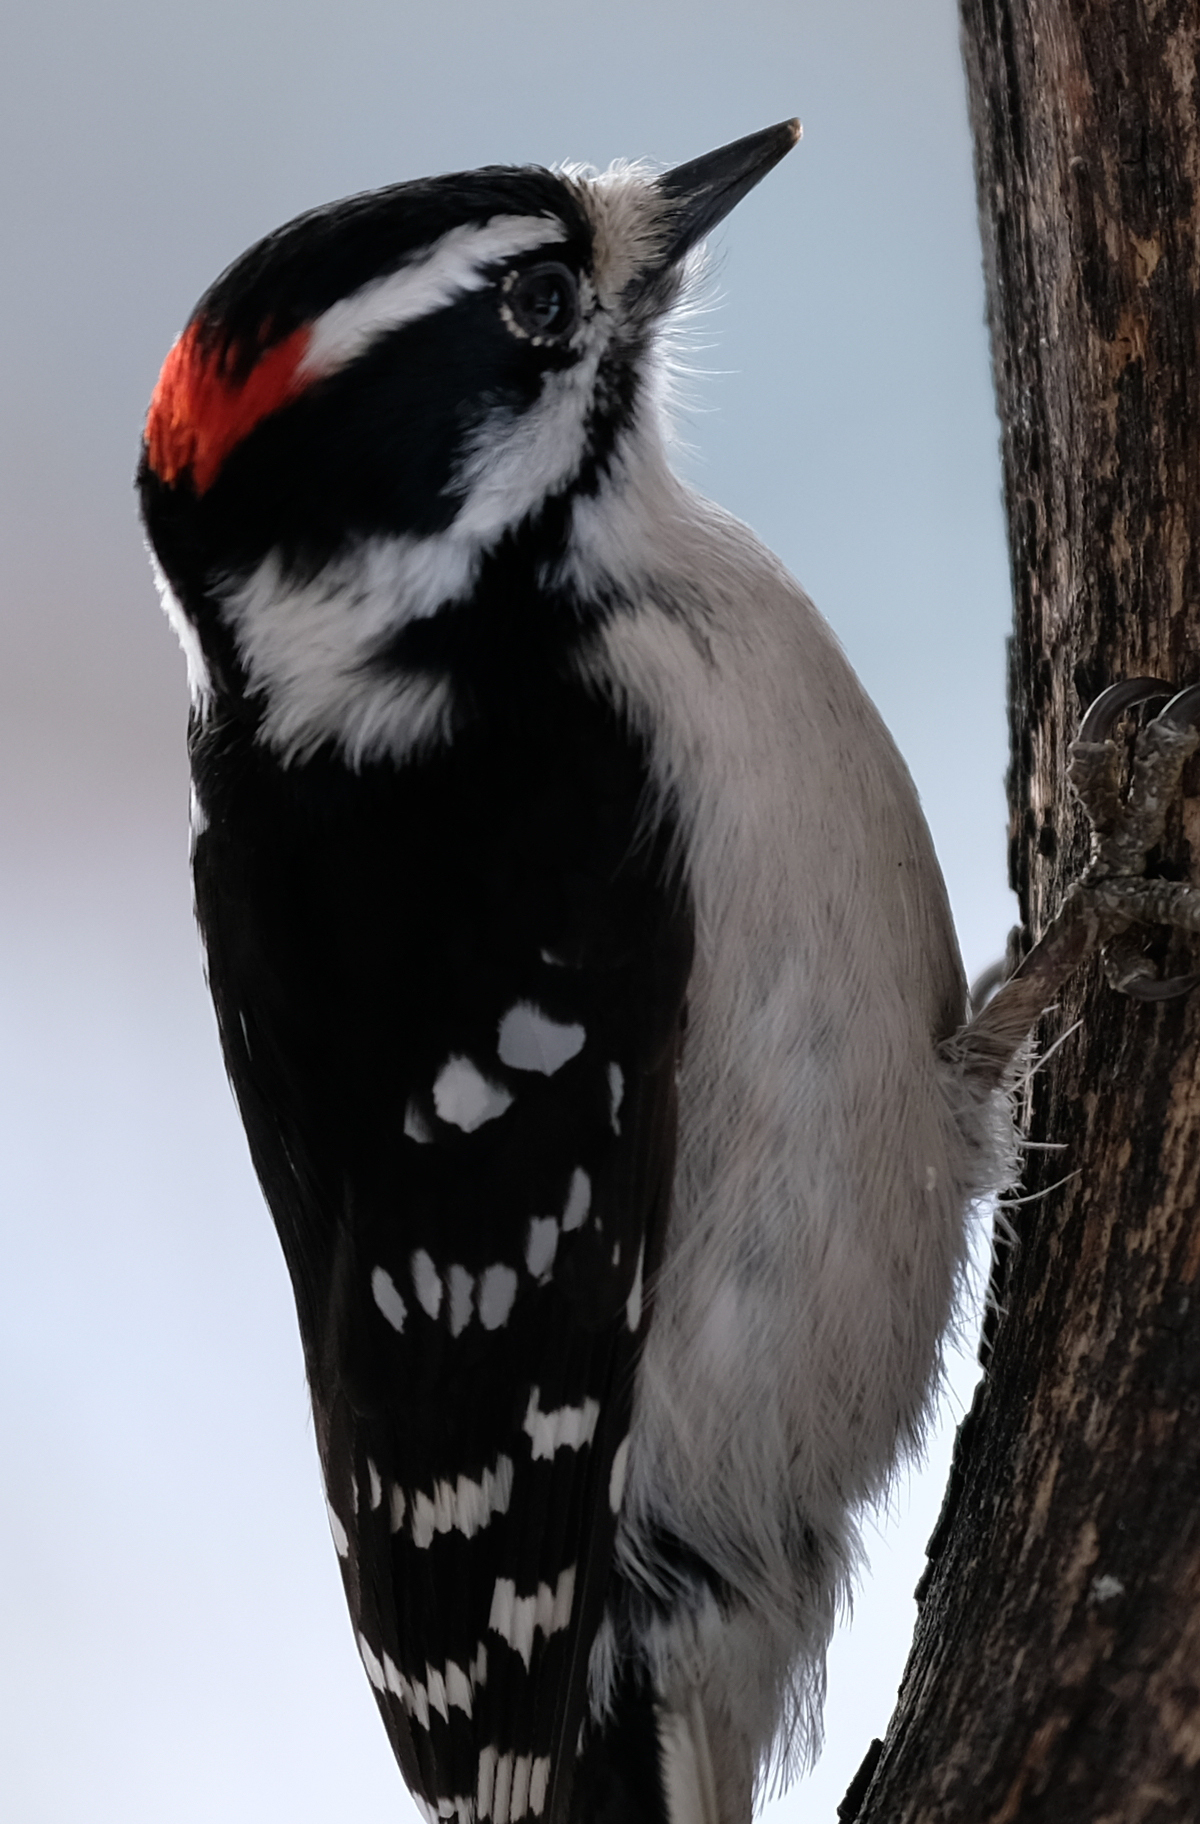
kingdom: Animalia
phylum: Chordata
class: Aves
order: Piciformes
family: Picidae
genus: Dryobates
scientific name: Dryobates pubescens
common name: Downy woodpecker
